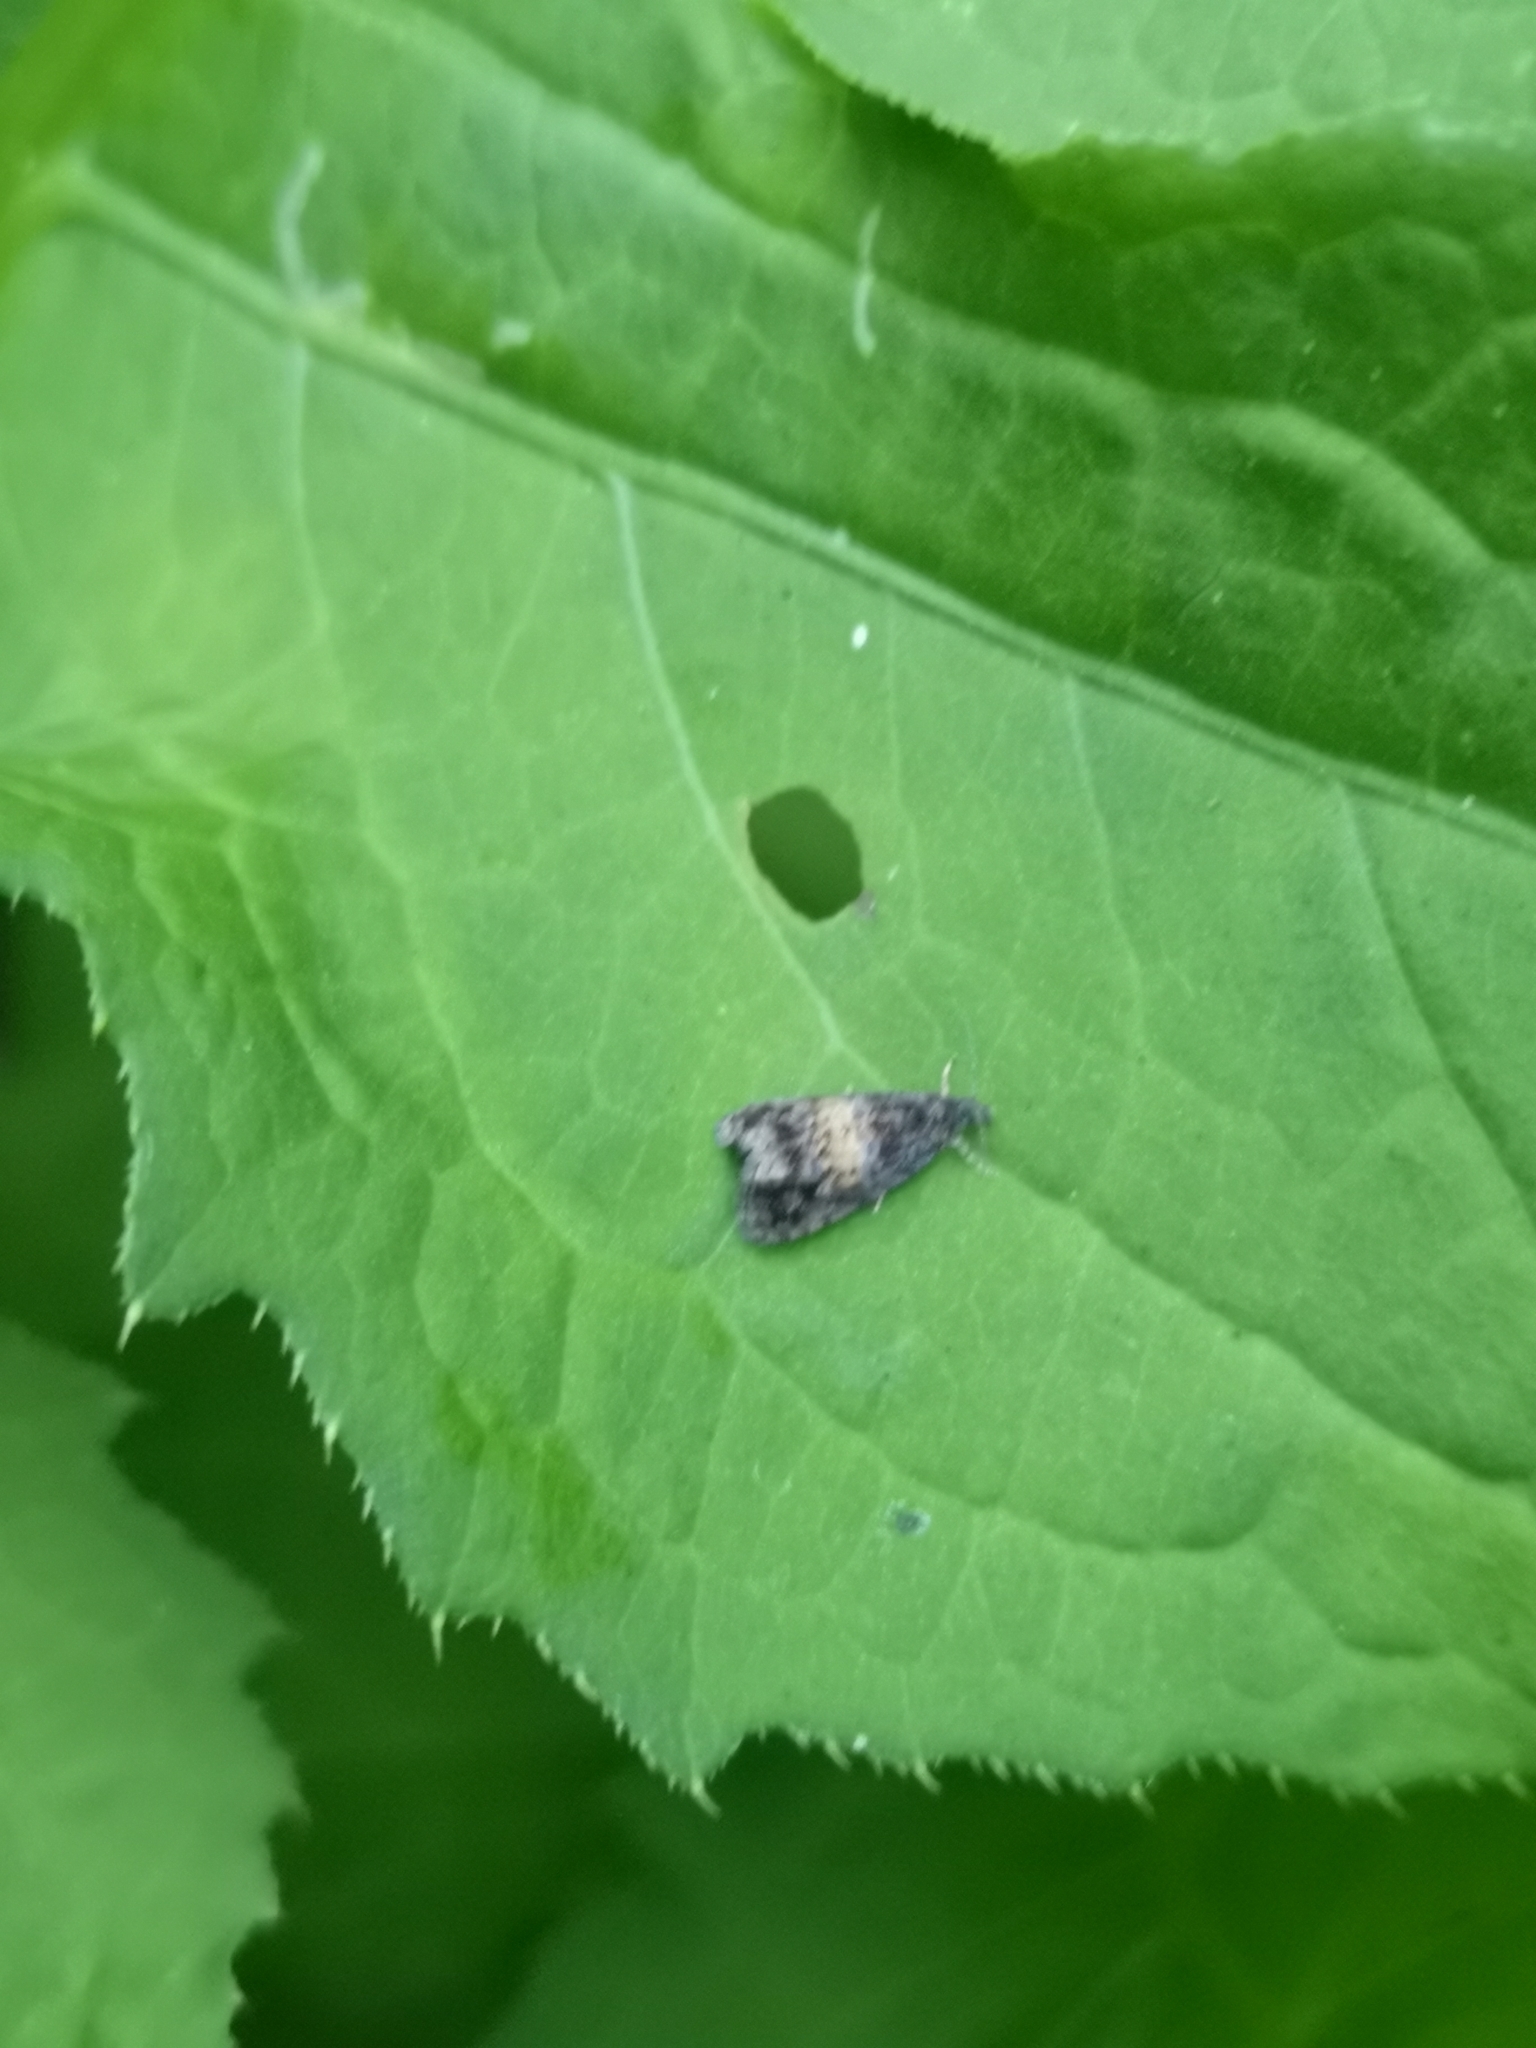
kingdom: Animalia
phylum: Arthropoda
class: Insecta
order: Lepidoptera
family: Tortricidae
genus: Endothenia
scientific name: Endothenia nigricostana
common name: Black-edged marble
